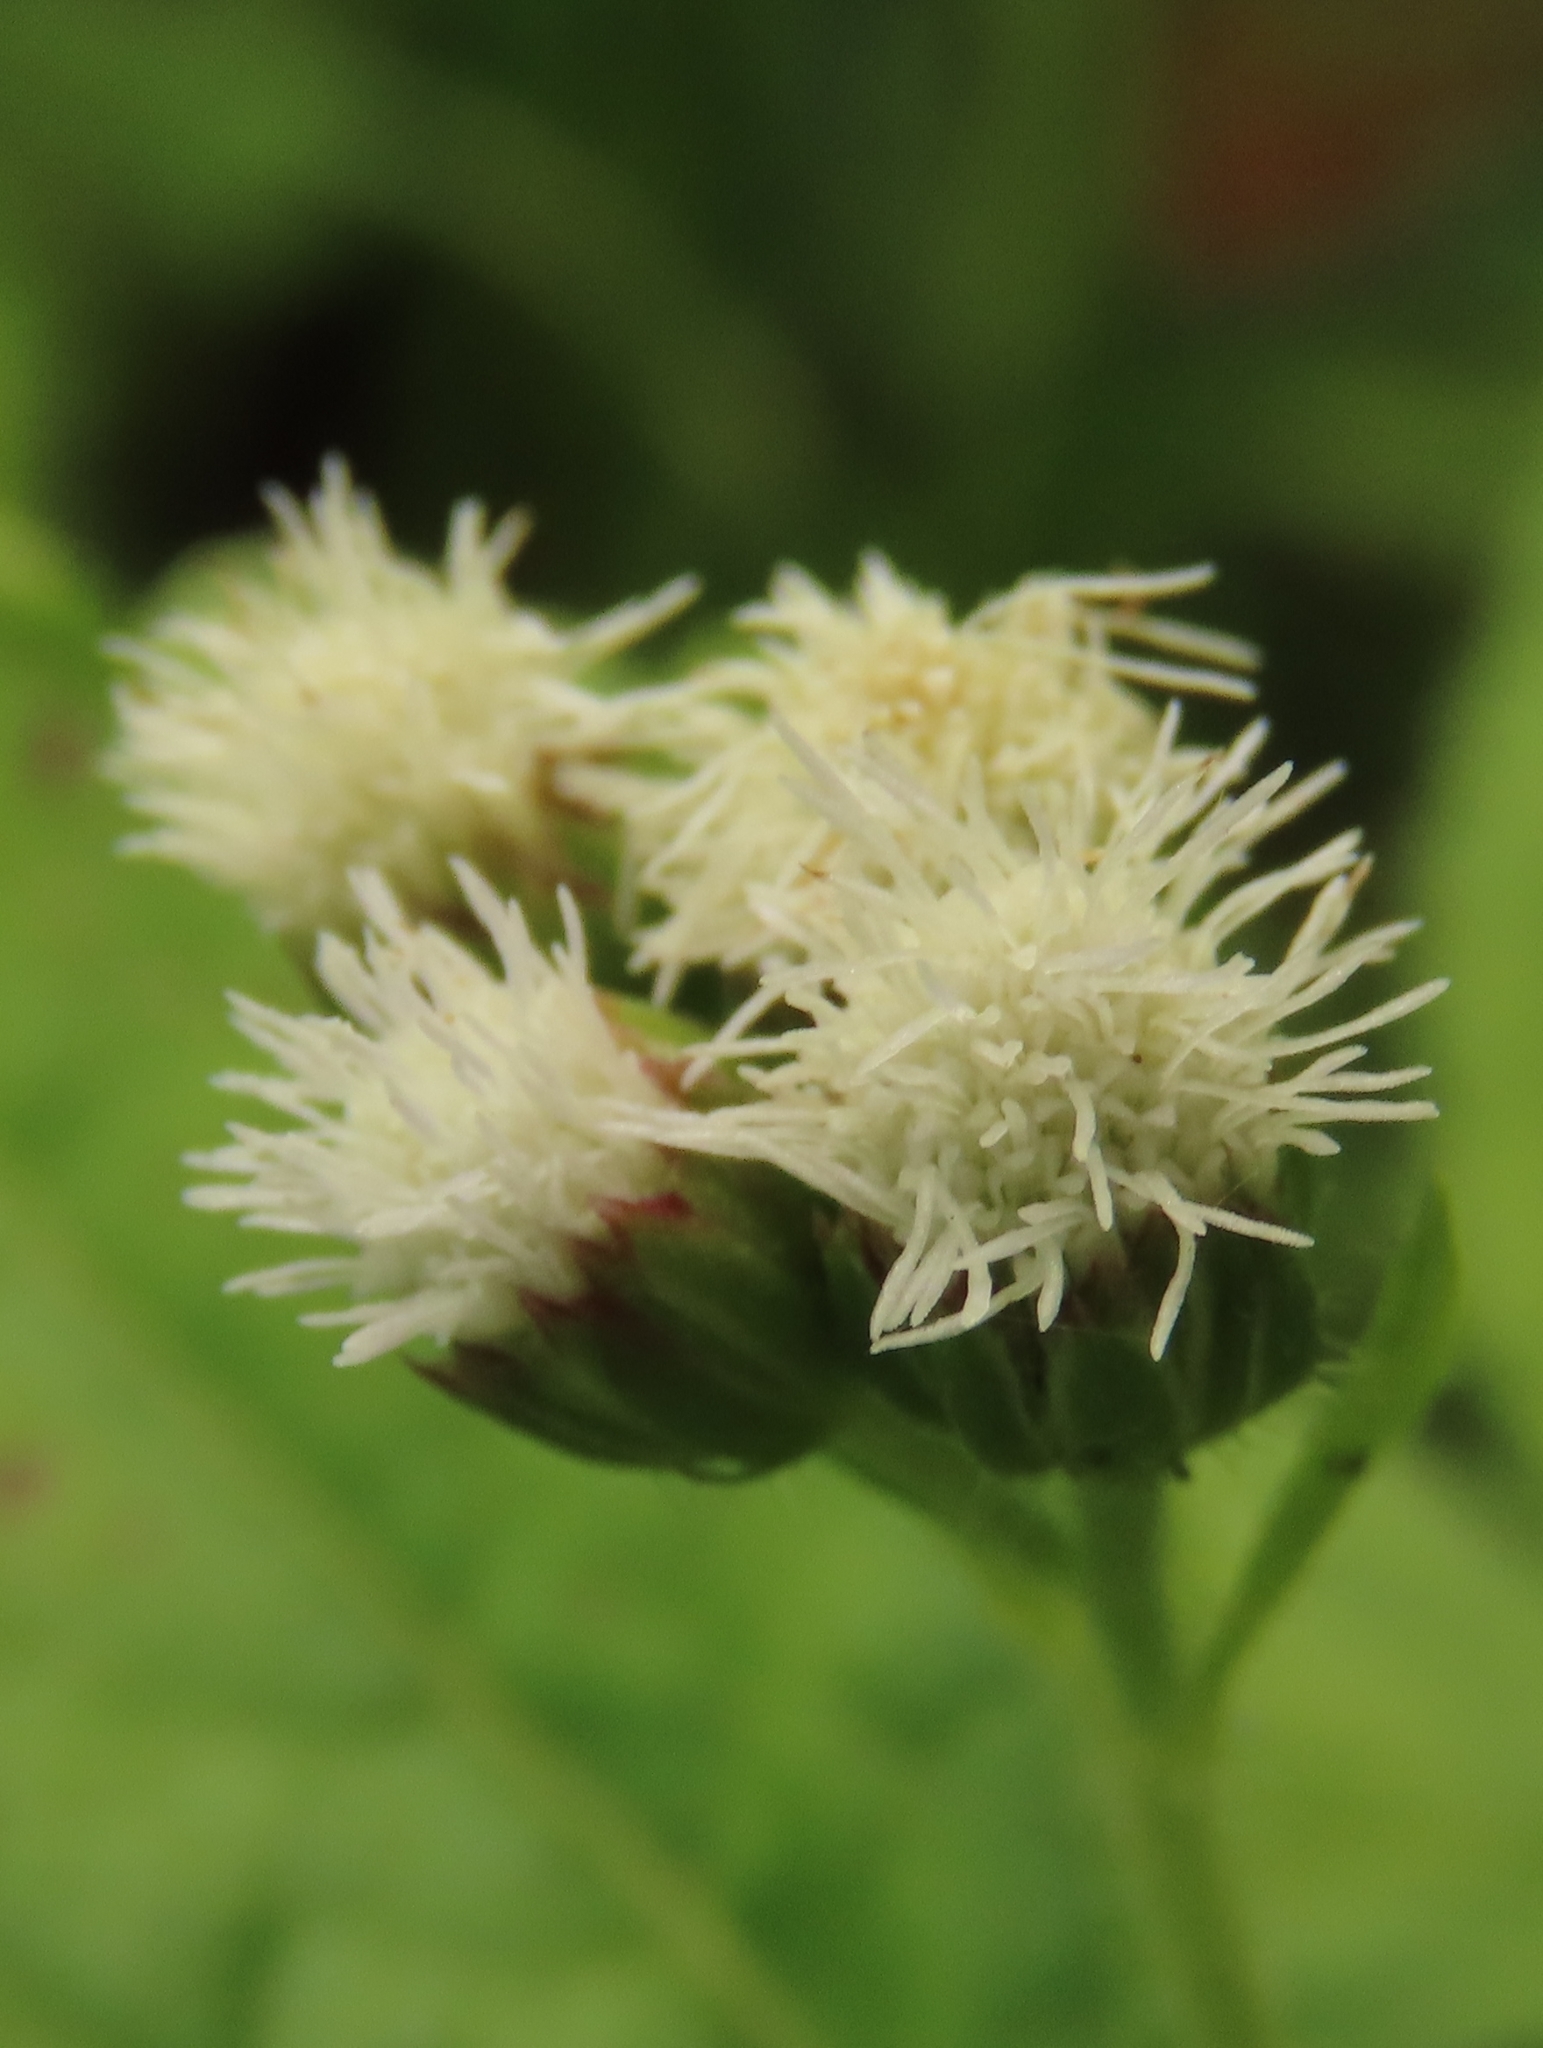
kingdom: Plantae
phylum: Tracheophyta
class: Magnoliopsida
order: Asterales
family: Asteraceae
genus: Ageratum
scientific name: Ageratum conyzoides
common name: Tropical whiteweed
